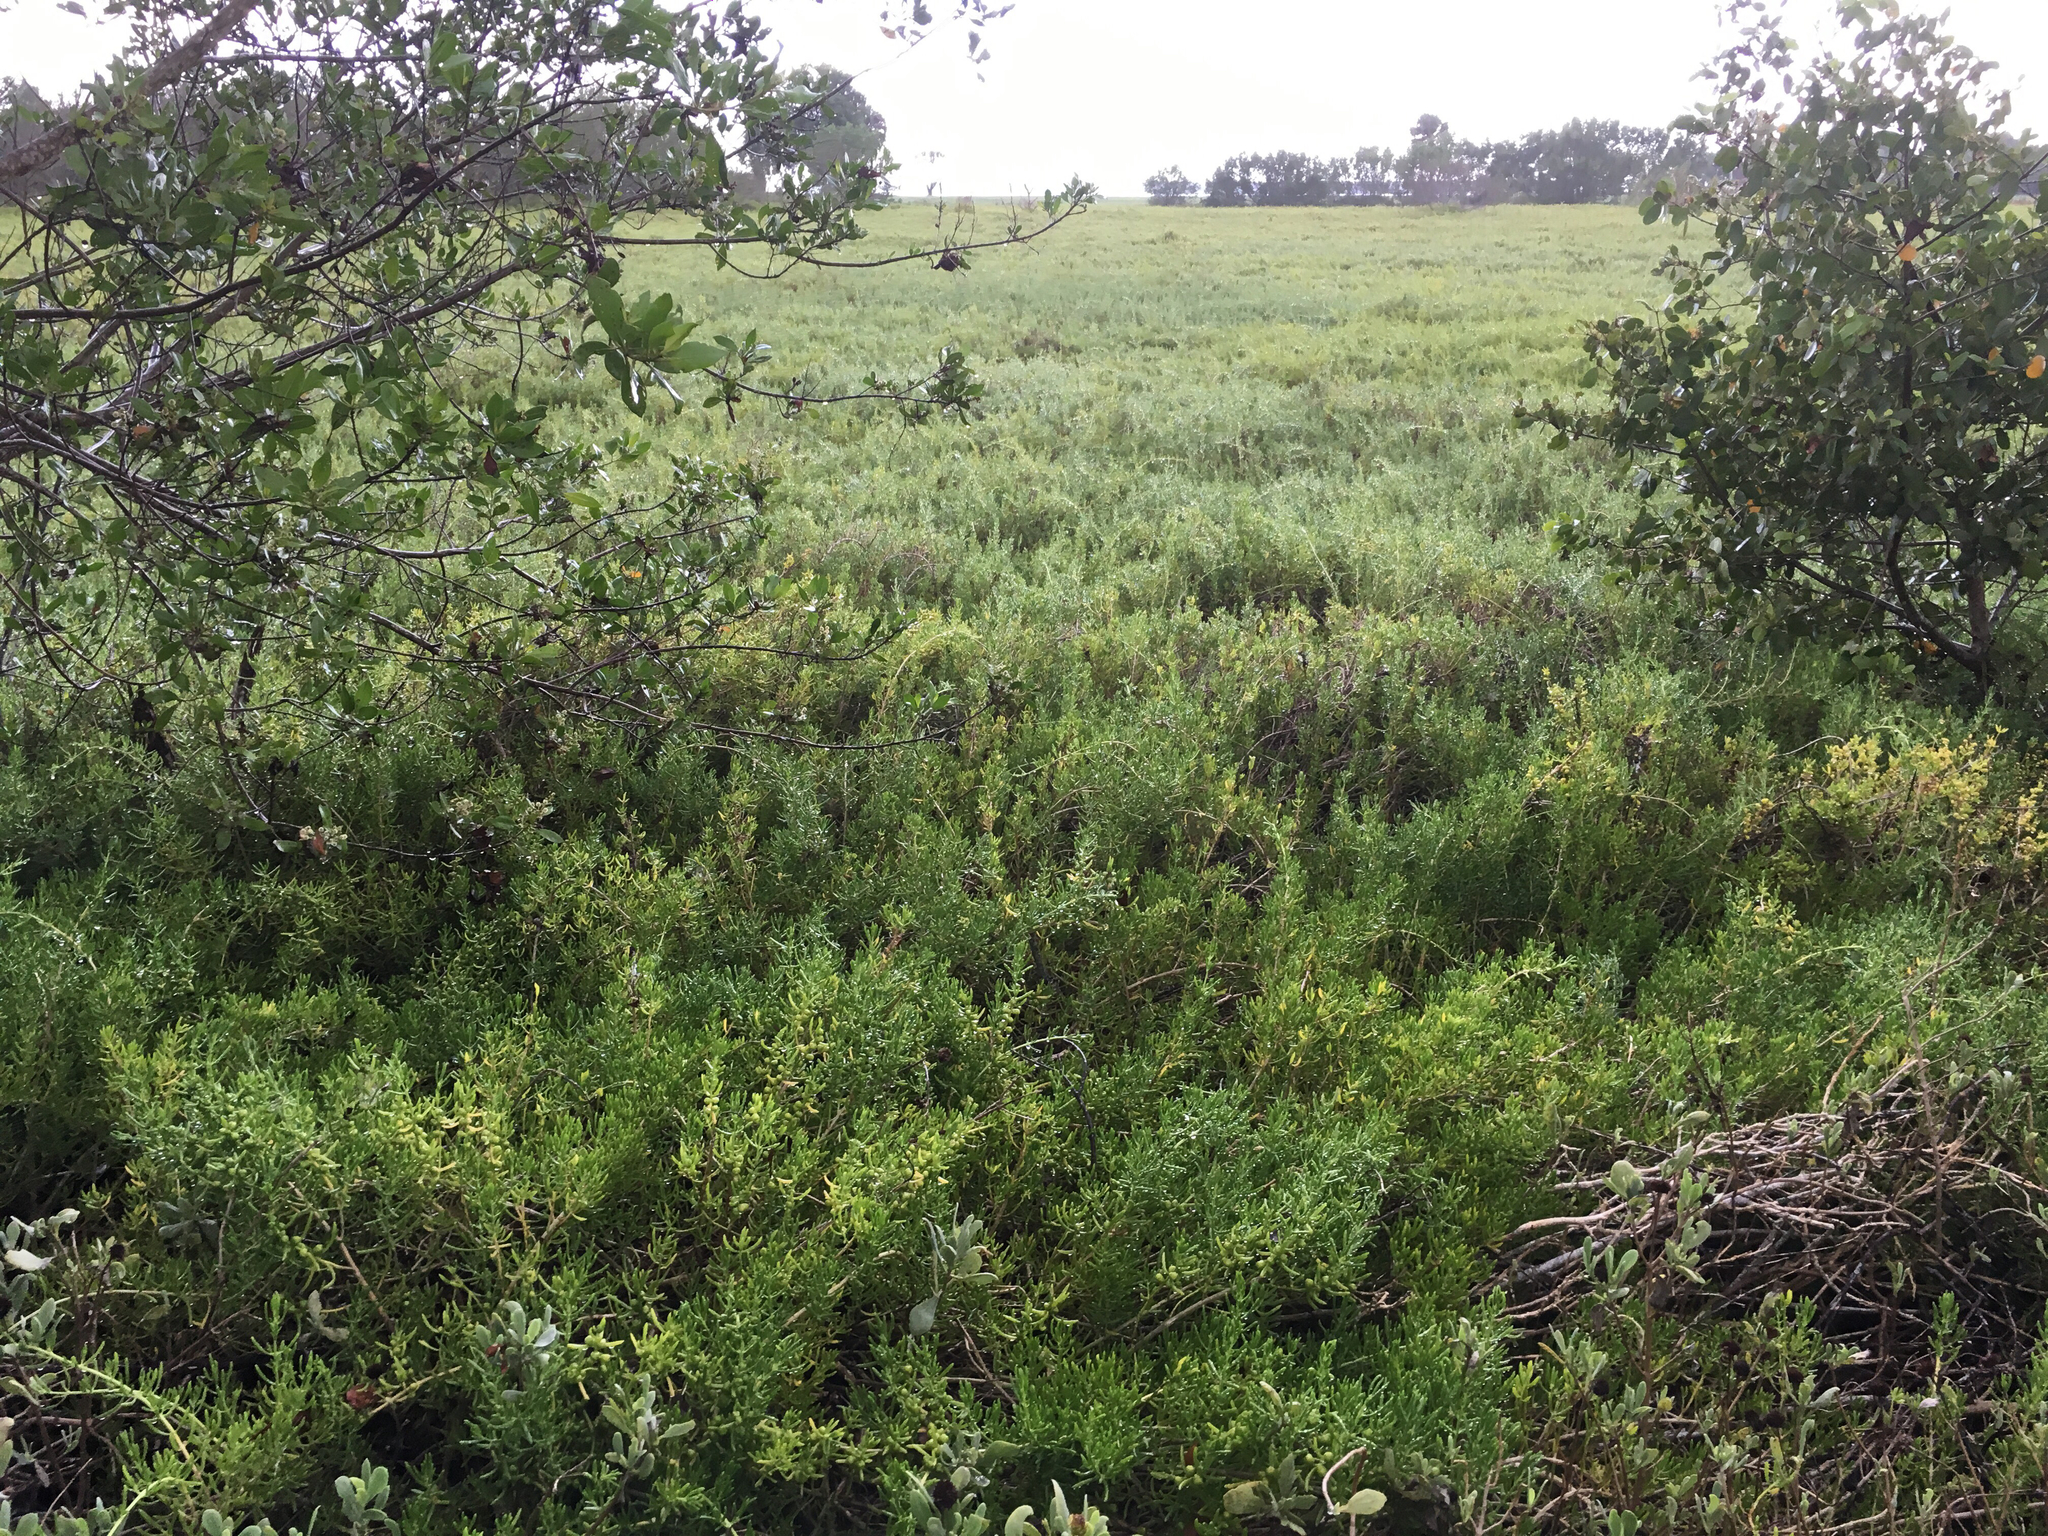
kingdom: Plantae
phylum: Tracheophyta
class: Magnoliopsida
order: Brassicales
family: Bataceae
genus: Batis
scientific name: Batis maritima
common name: Turtleweed
